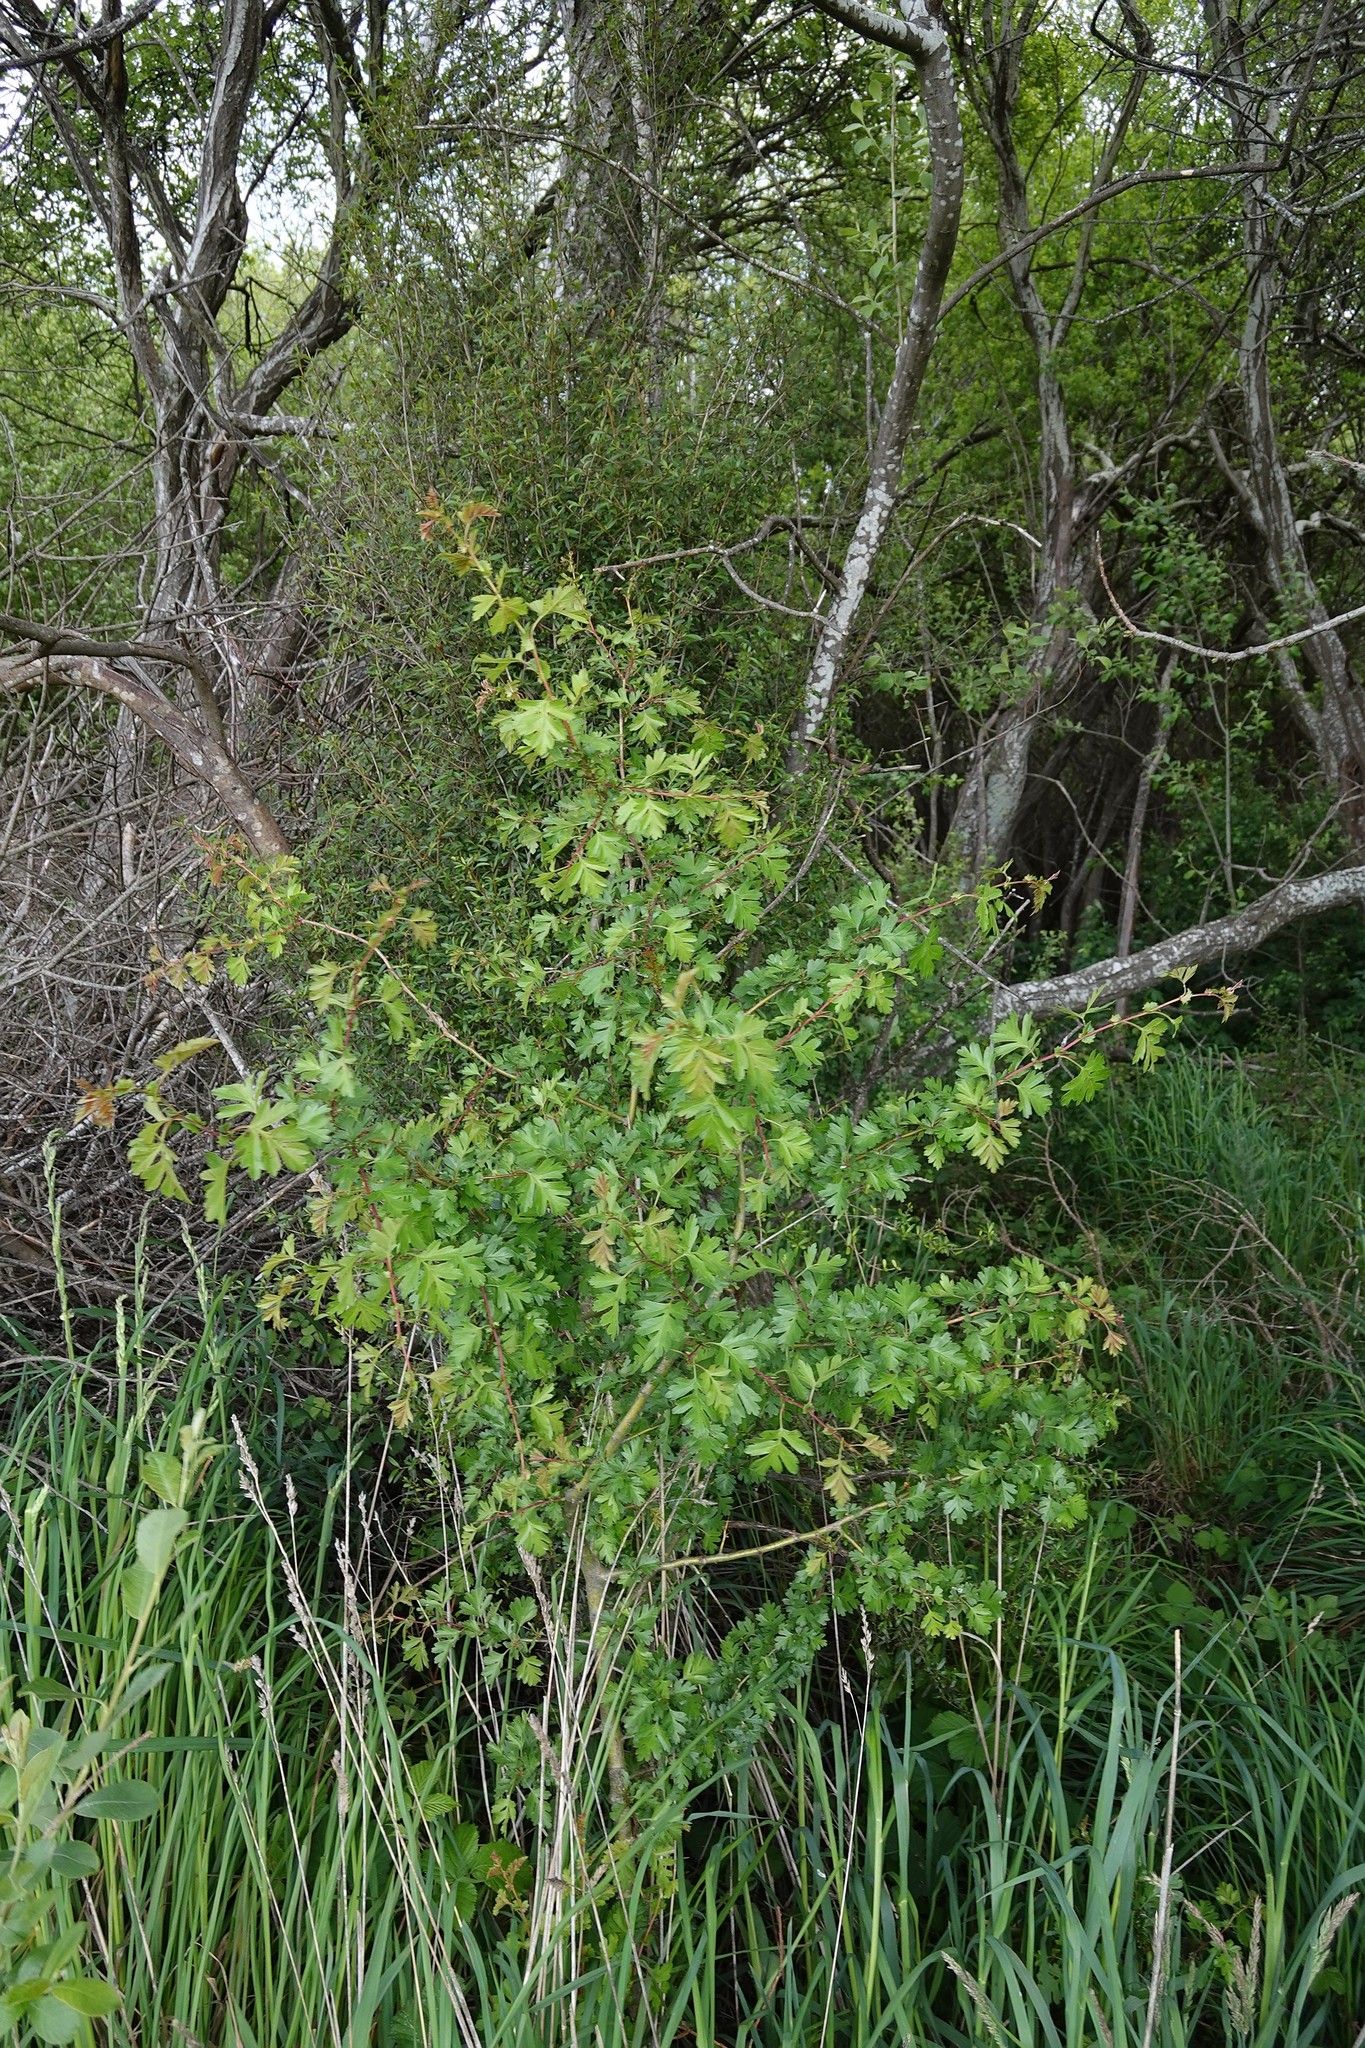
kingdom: Plantae
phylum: Tracheophyta
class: Magnoliopsida
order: Rosales
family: Rosaceae
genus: Crataegus
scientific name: Crataegus monogyna
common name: Hawthorn
